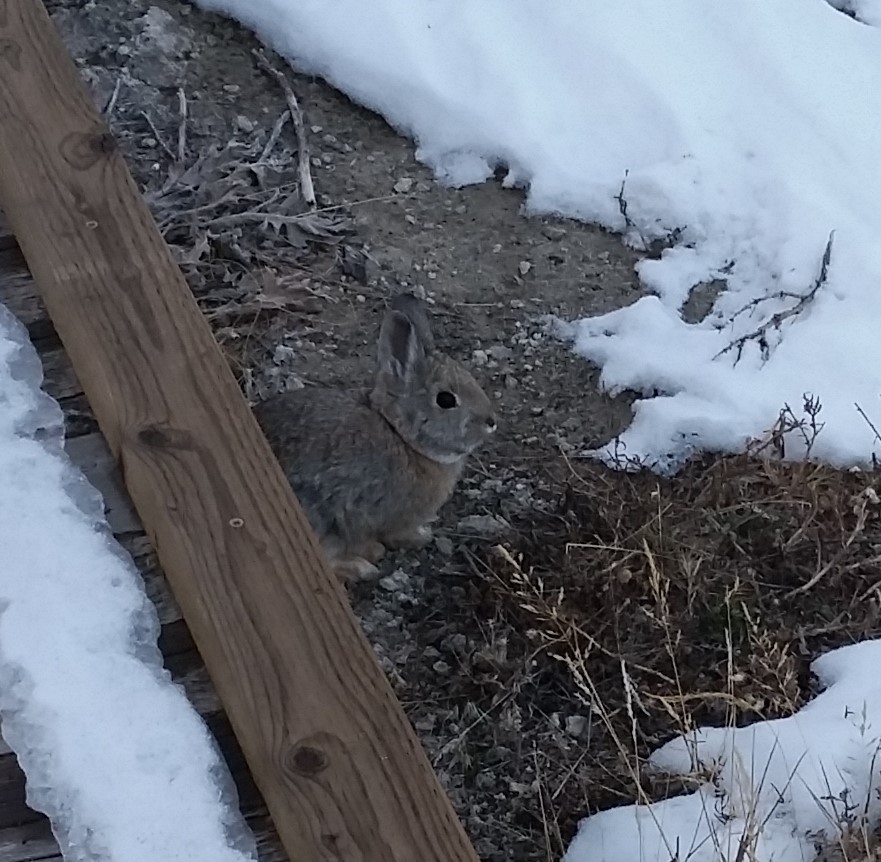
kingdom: Animalia
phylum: Chordata
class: Mammalia
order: Lagomorpha
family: Leporidae
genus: Sylvilagus
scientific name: Sylvilagus nuttallii
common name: Mountain cottontail
